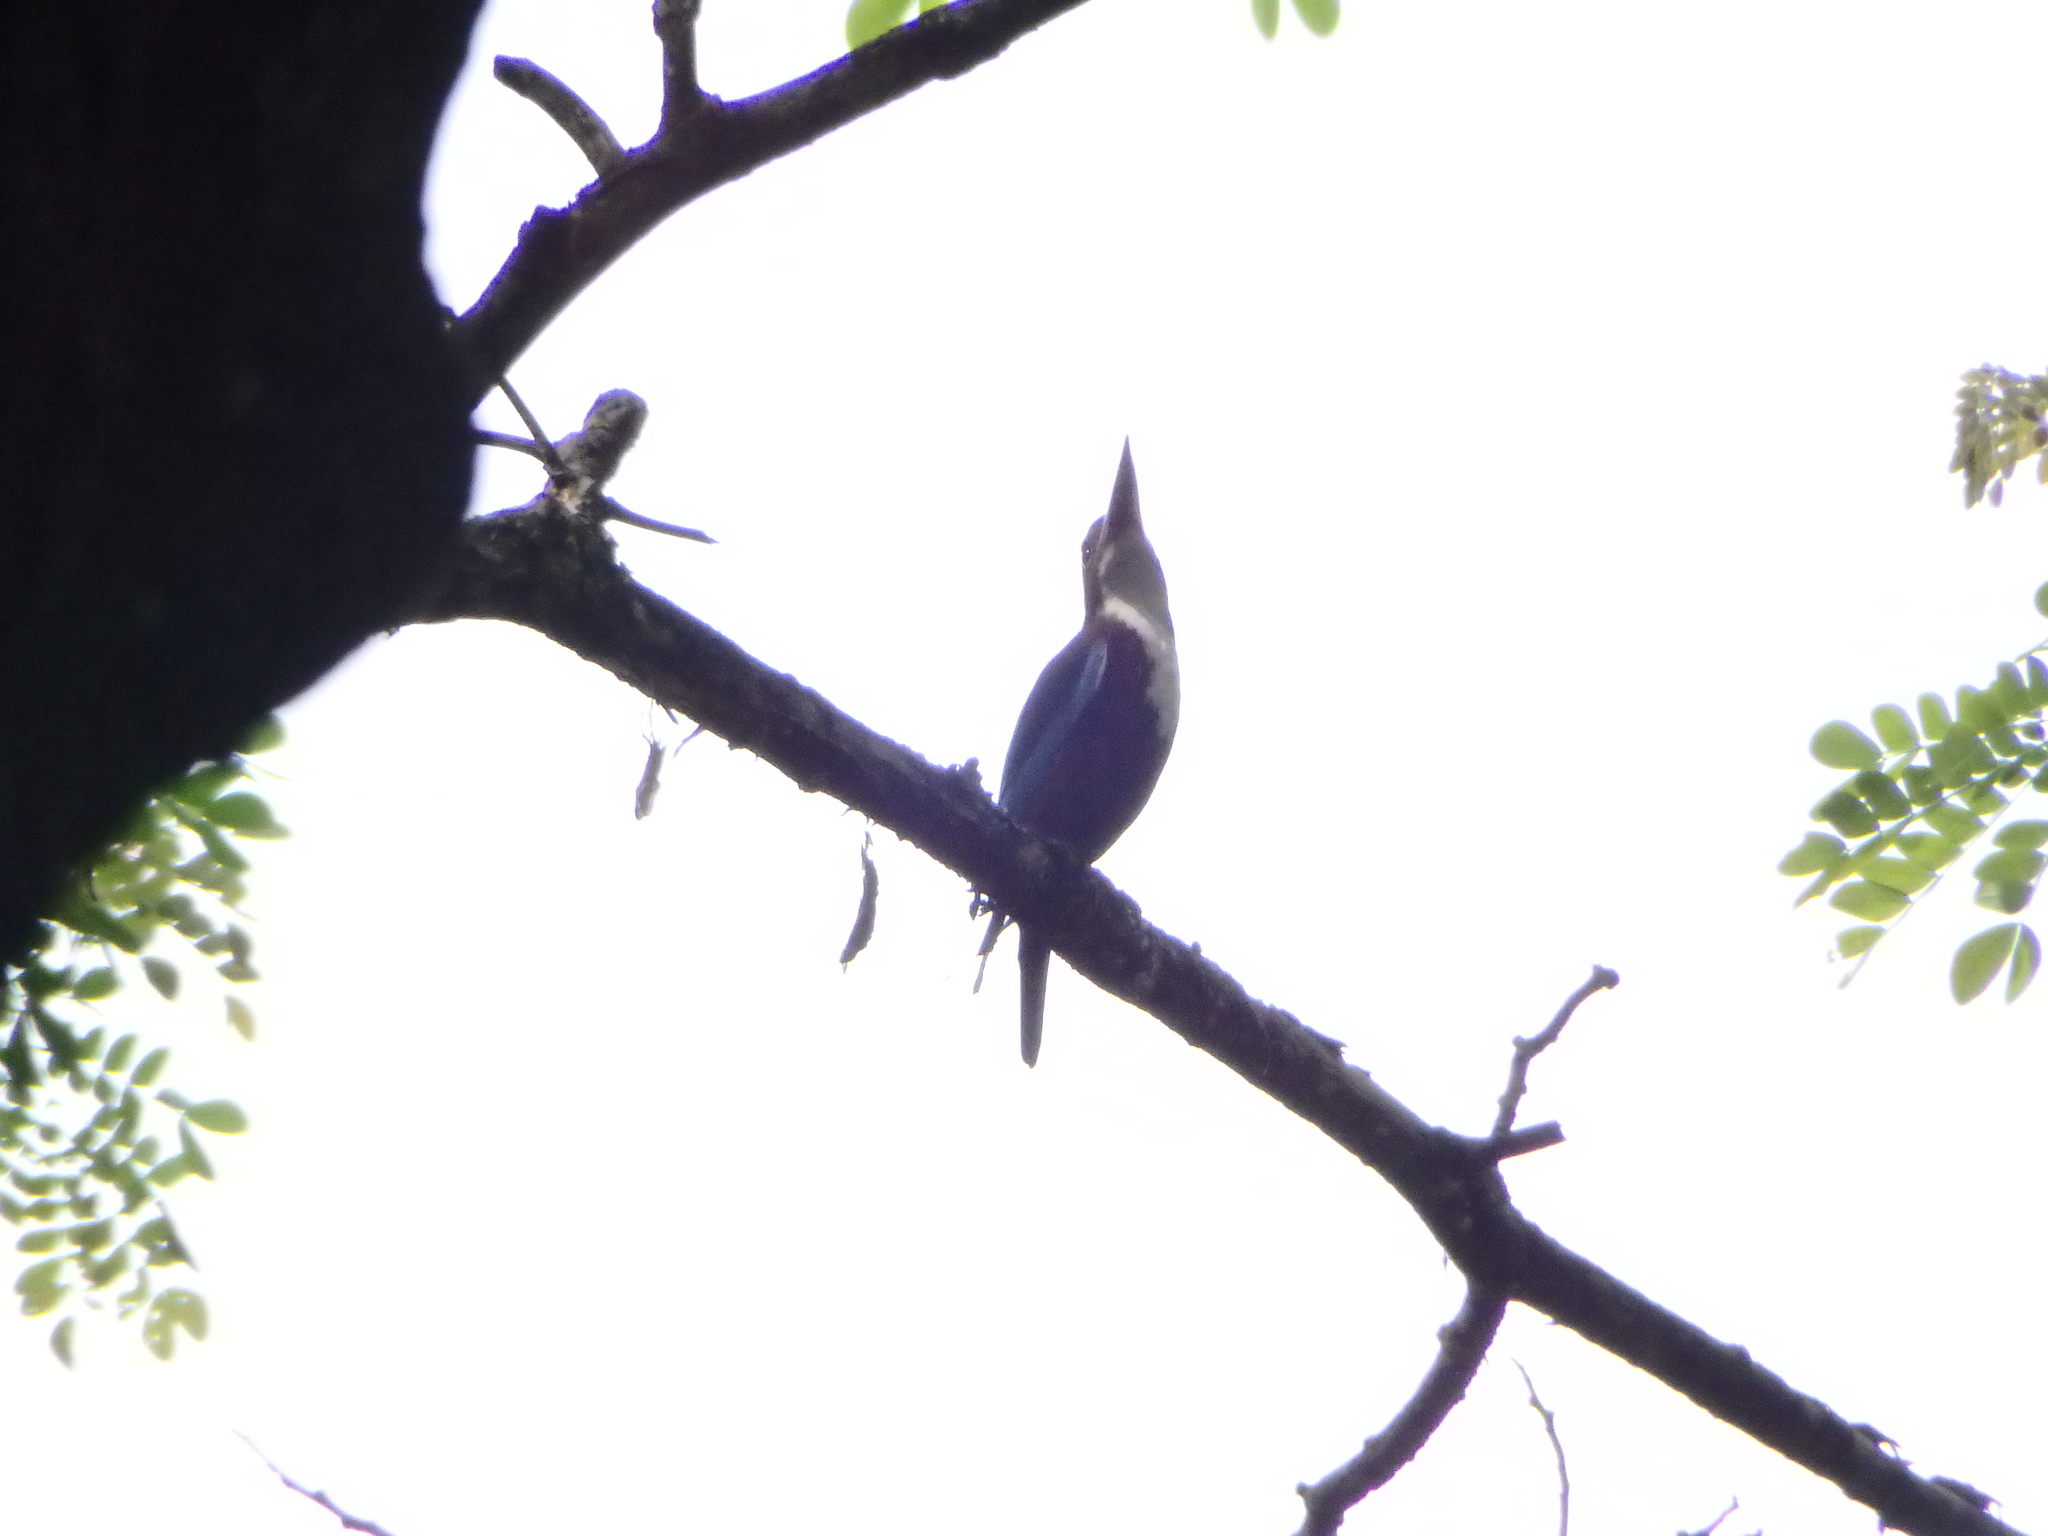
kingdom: Animalia
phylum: Chordata
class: Aves
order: Coraciiformes
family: Alcedinidae
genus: Halcyon
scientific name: Halcyon smyrnensis
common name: White-throated kingfisher
